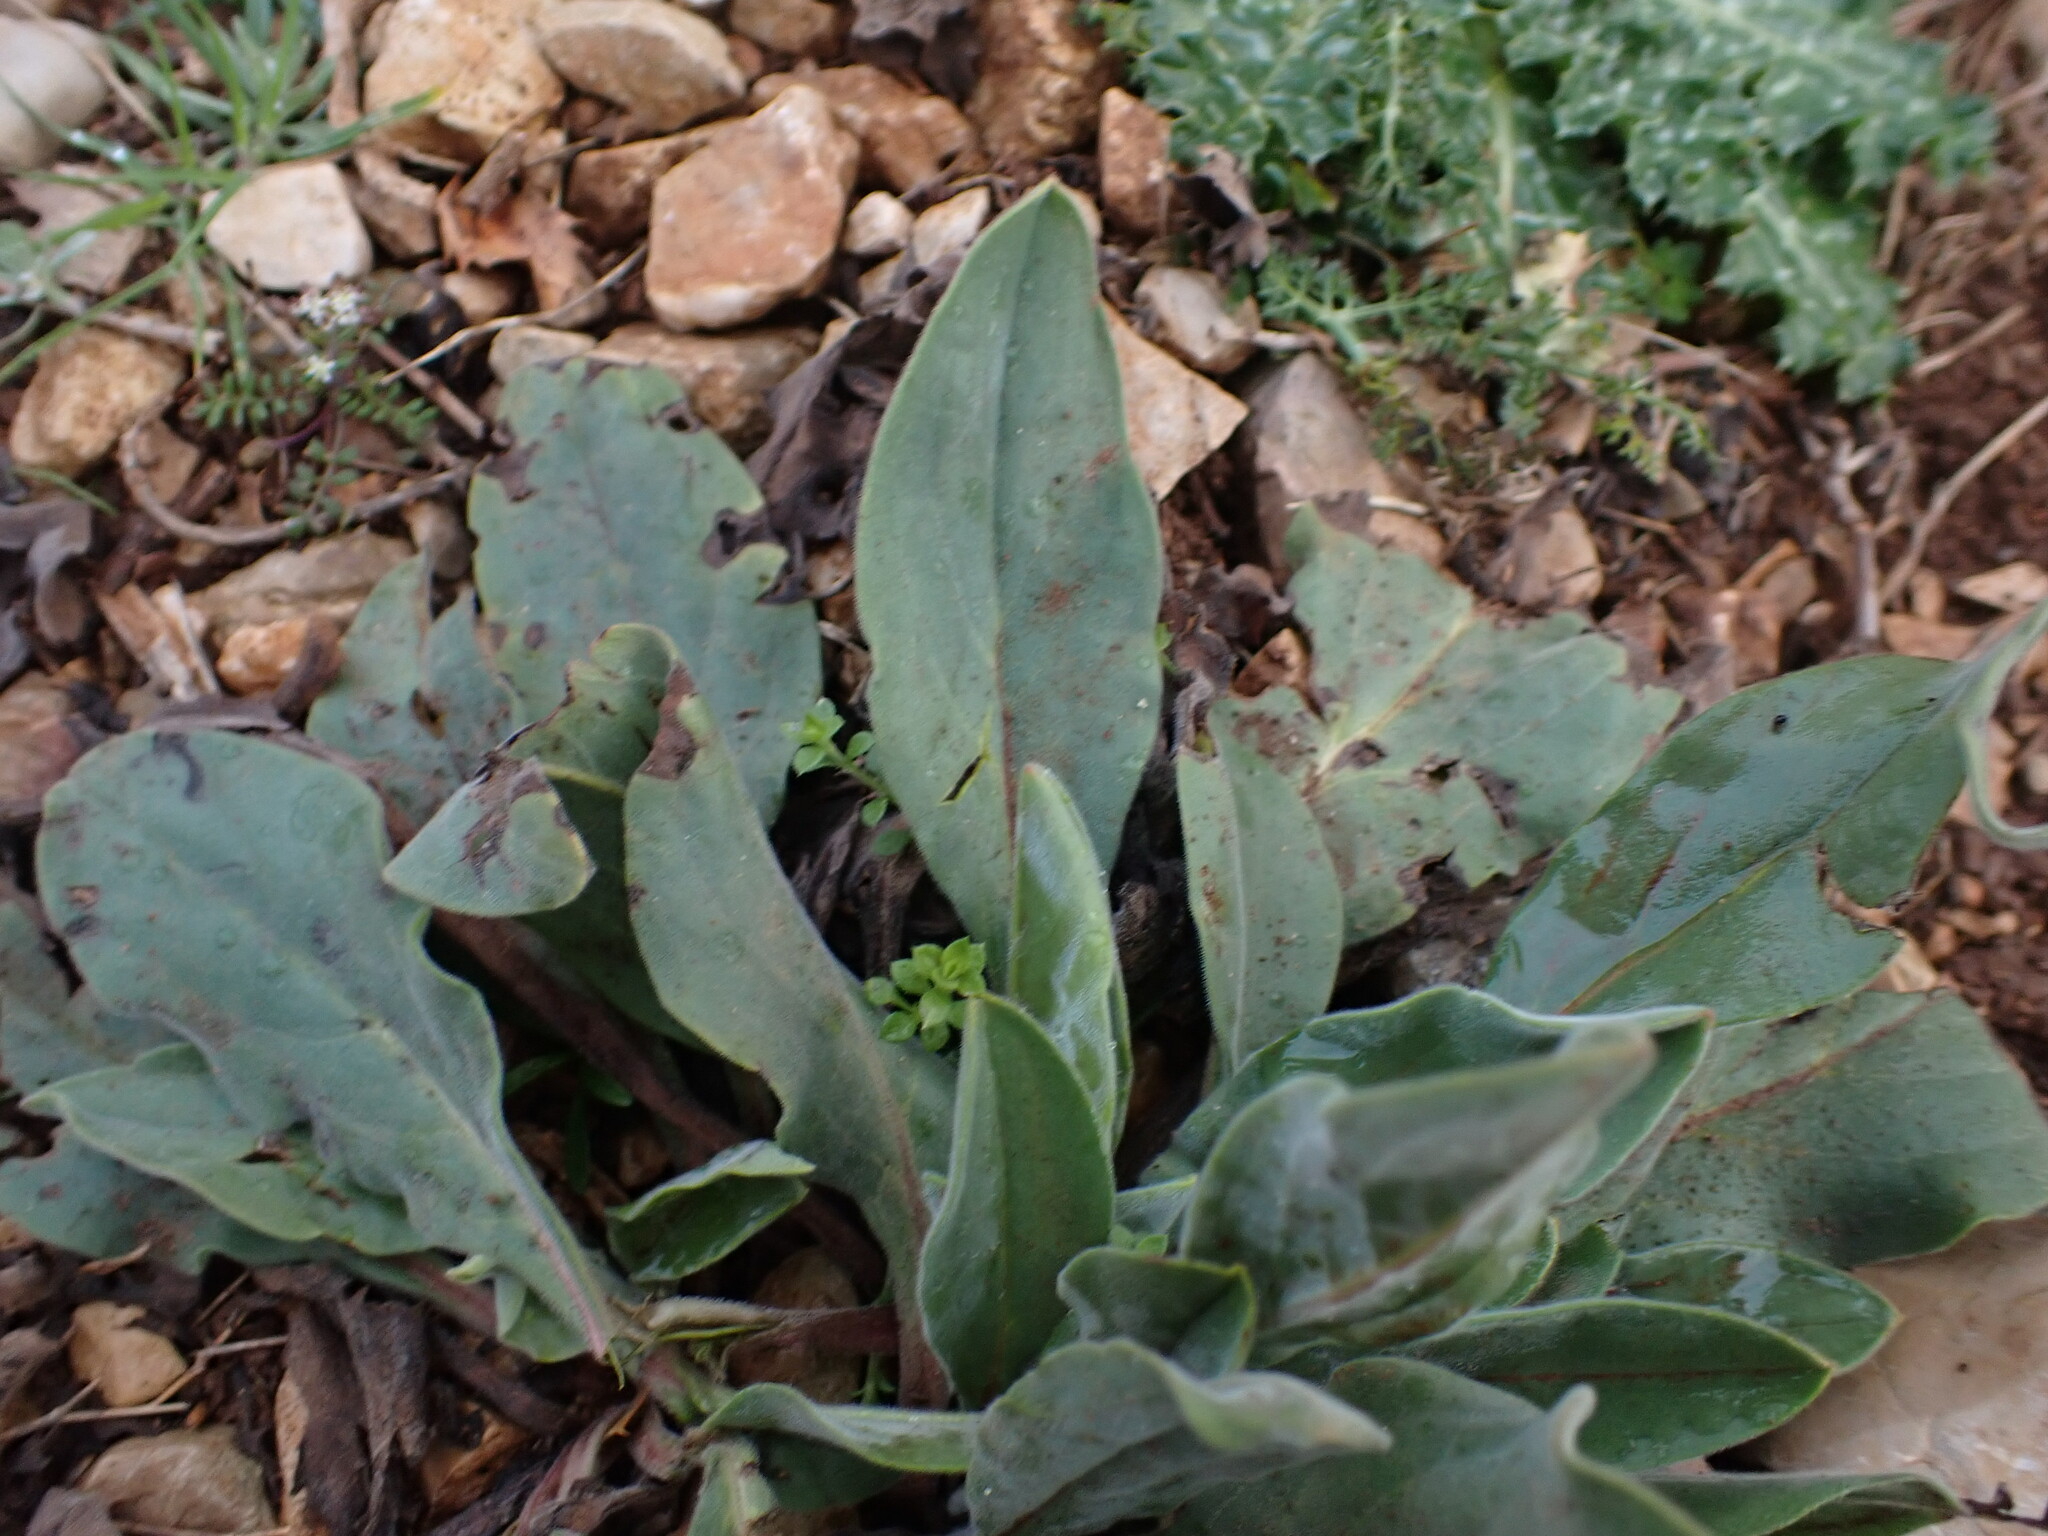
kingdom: Plantae
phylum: Tracheophyta
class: Magnoliopsida
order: Boraginales
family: Boraginaceae
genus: Cynoglossum
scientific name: Cynoglossum creticum
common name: Blue hound's tongue
